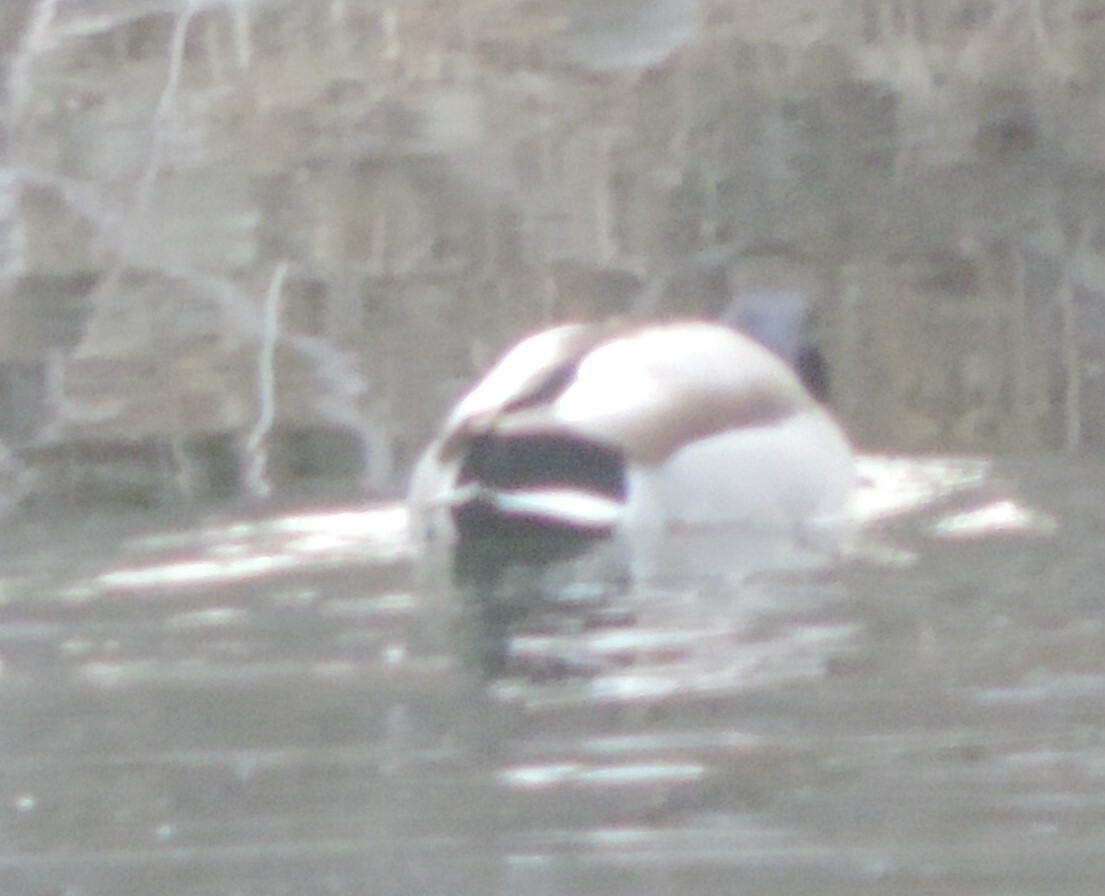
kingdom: Animalia
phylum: Chordata
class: Aves
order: Anseriformes
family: Anatidae
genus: Anas
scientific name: Anas platyrhynchos
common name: Mallard
